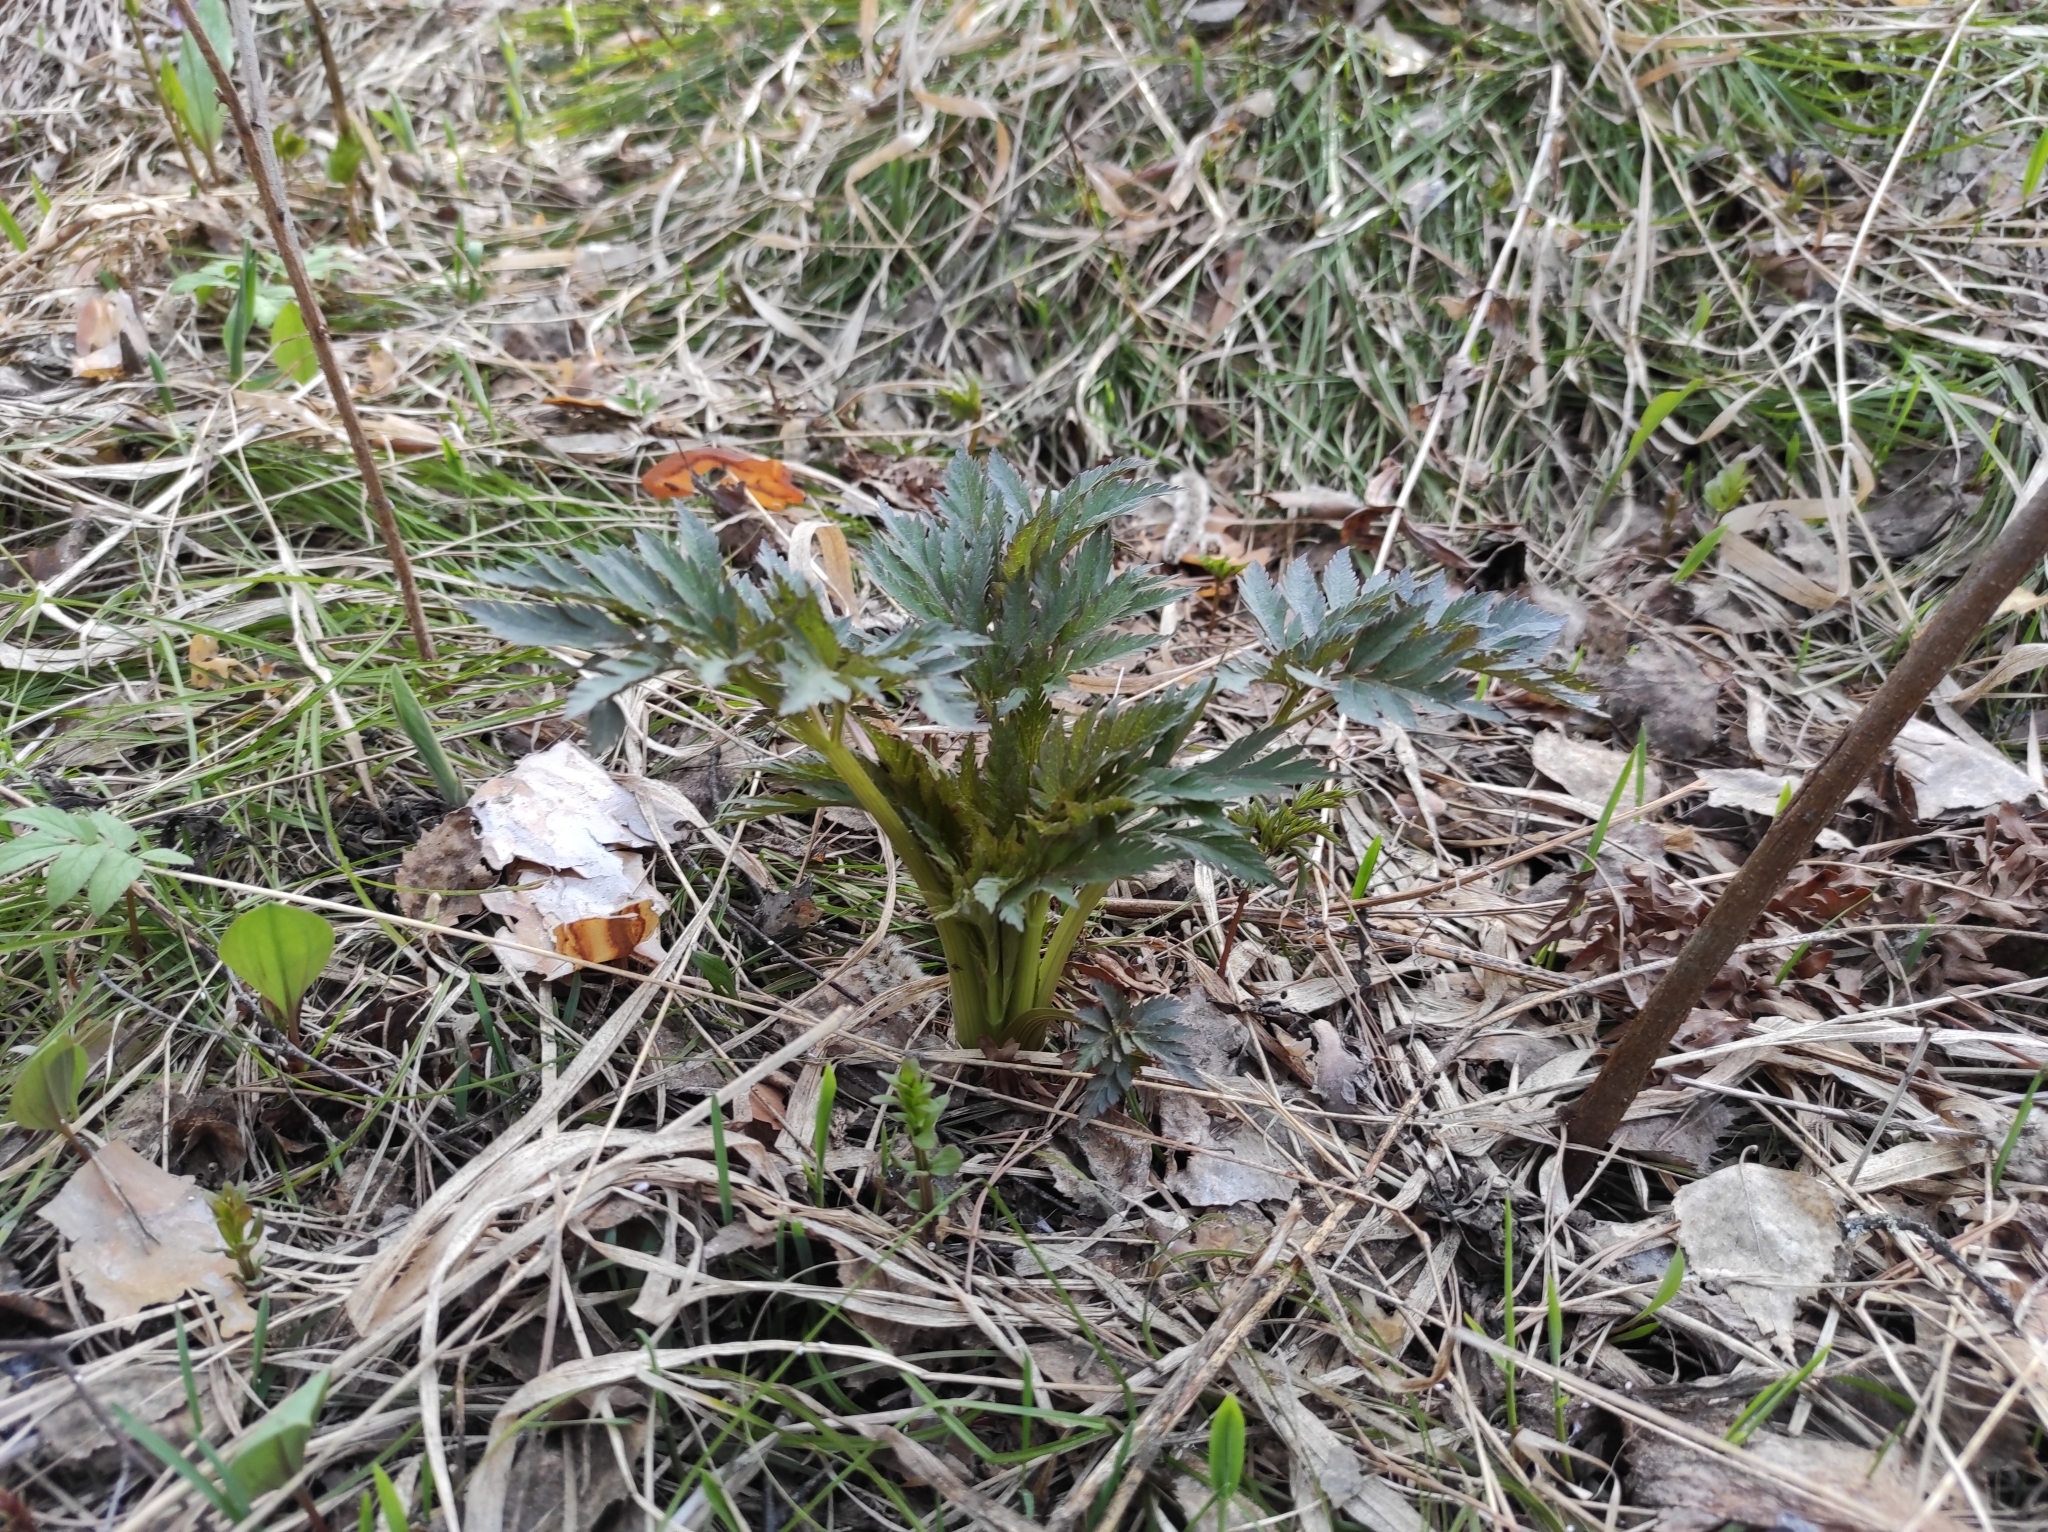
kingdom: Plantae
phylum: Tracheophyta
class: Magnoliopsida
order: Apiales
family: Apiaceae
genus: Pleurospermum
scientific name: Pleurospermum uralense
